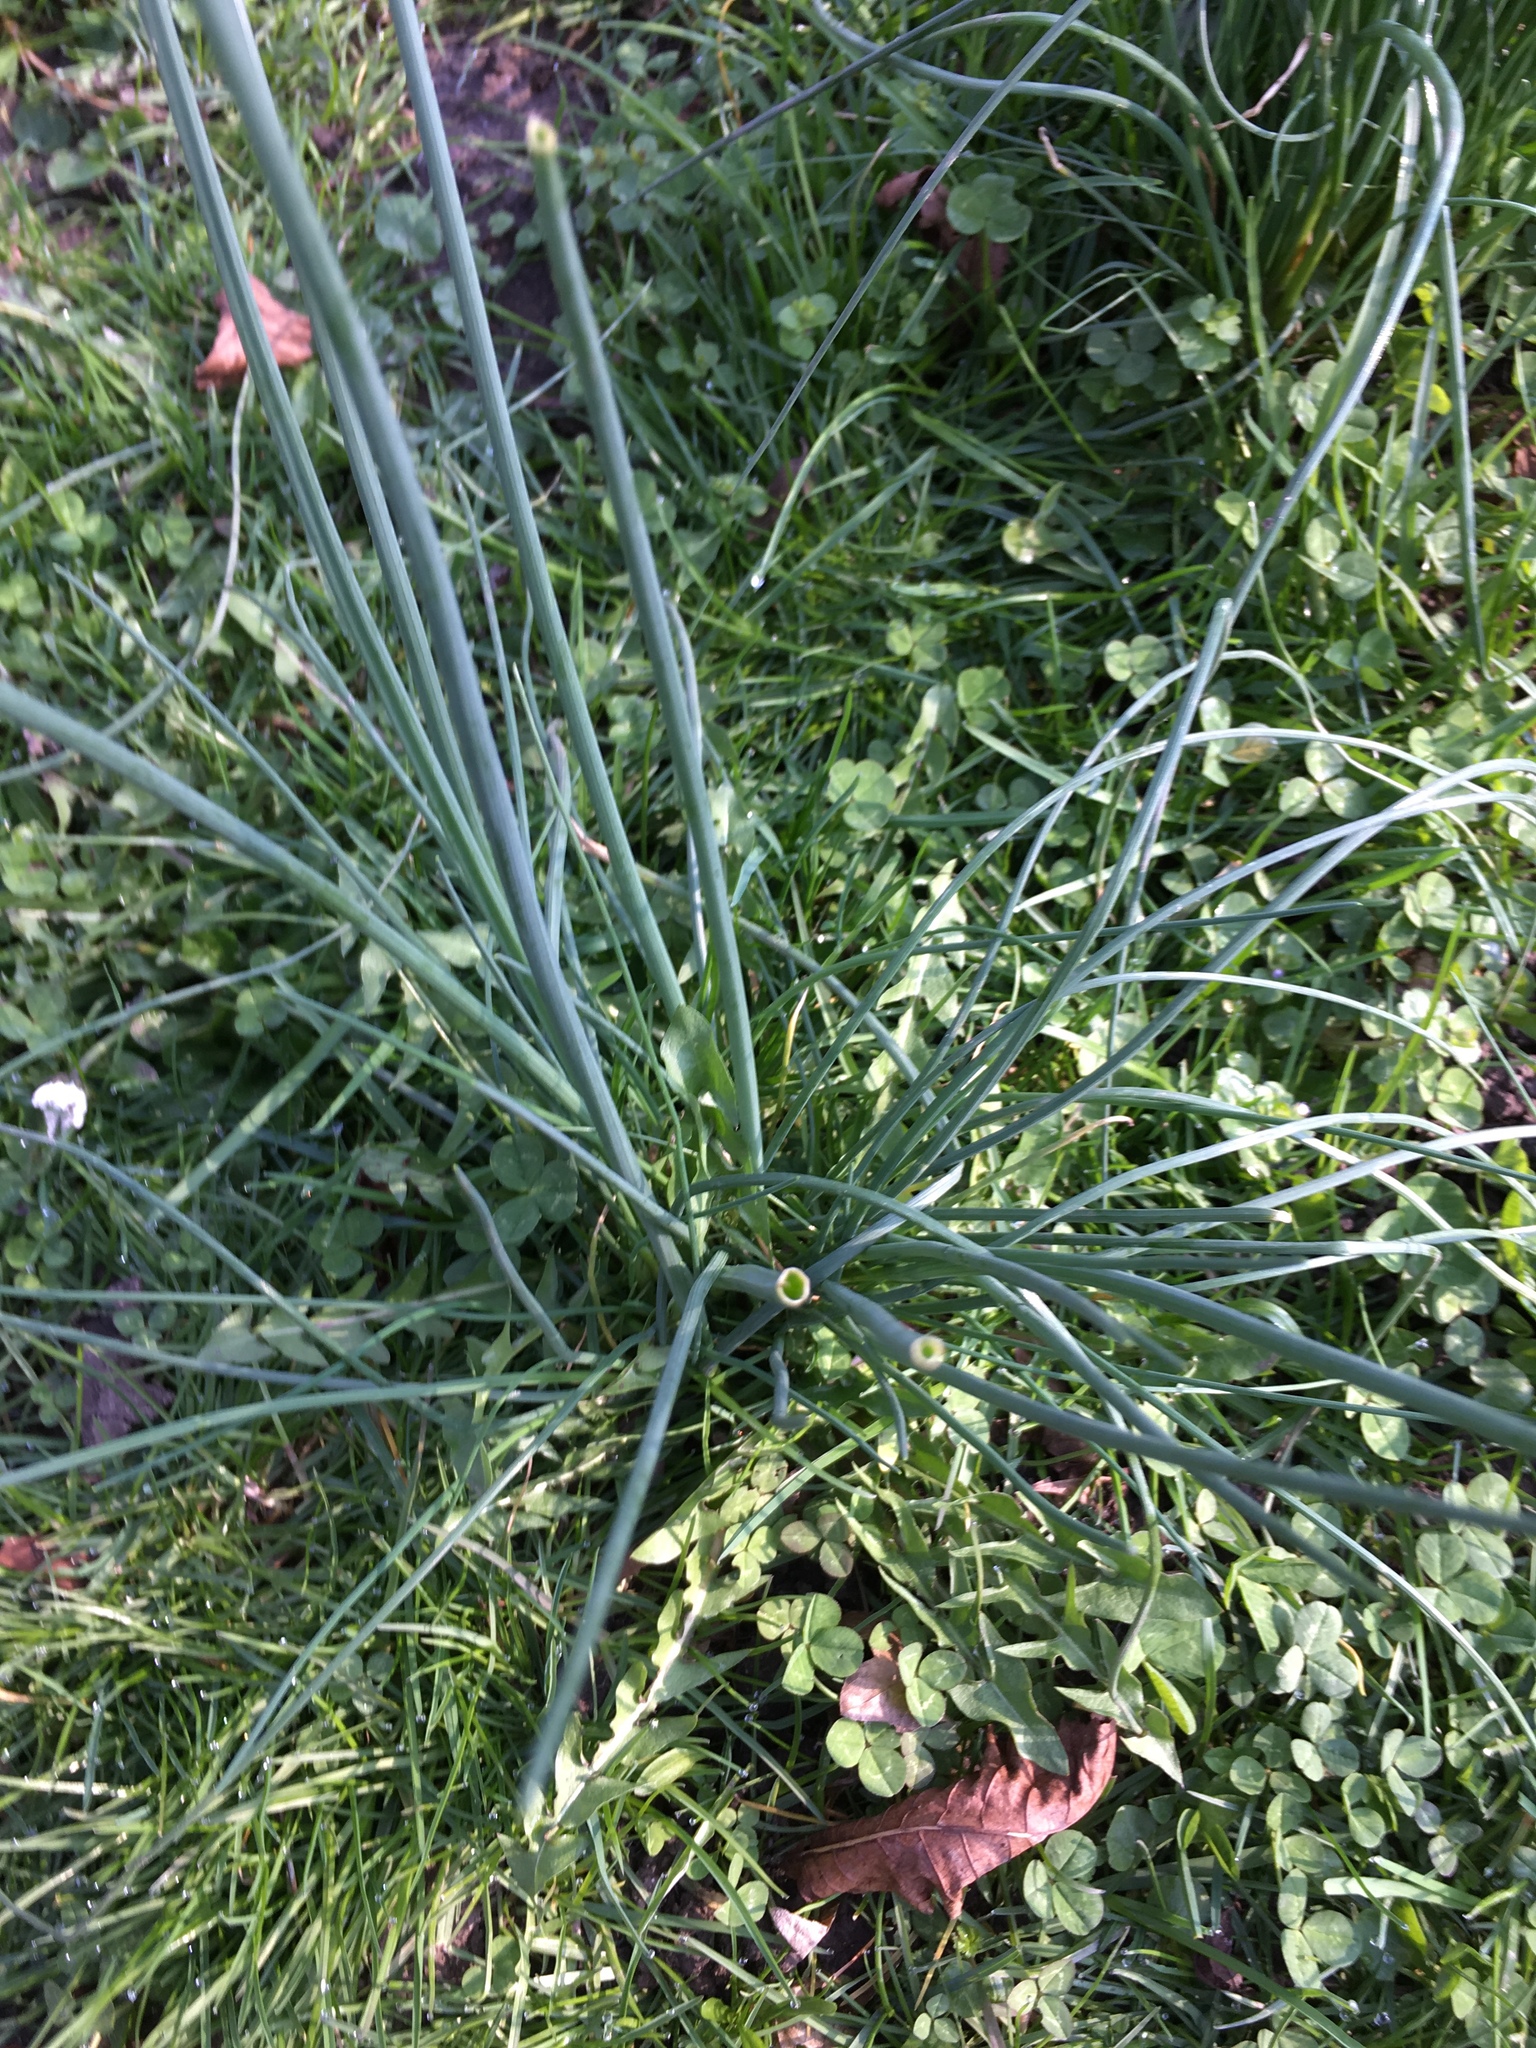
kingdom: Plantae
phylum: Tracheophyta
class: Liliopsida
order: Asparagales
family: Amaryllidaceae
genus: Allium
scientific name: Allium schoenoprasum
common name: Chives
